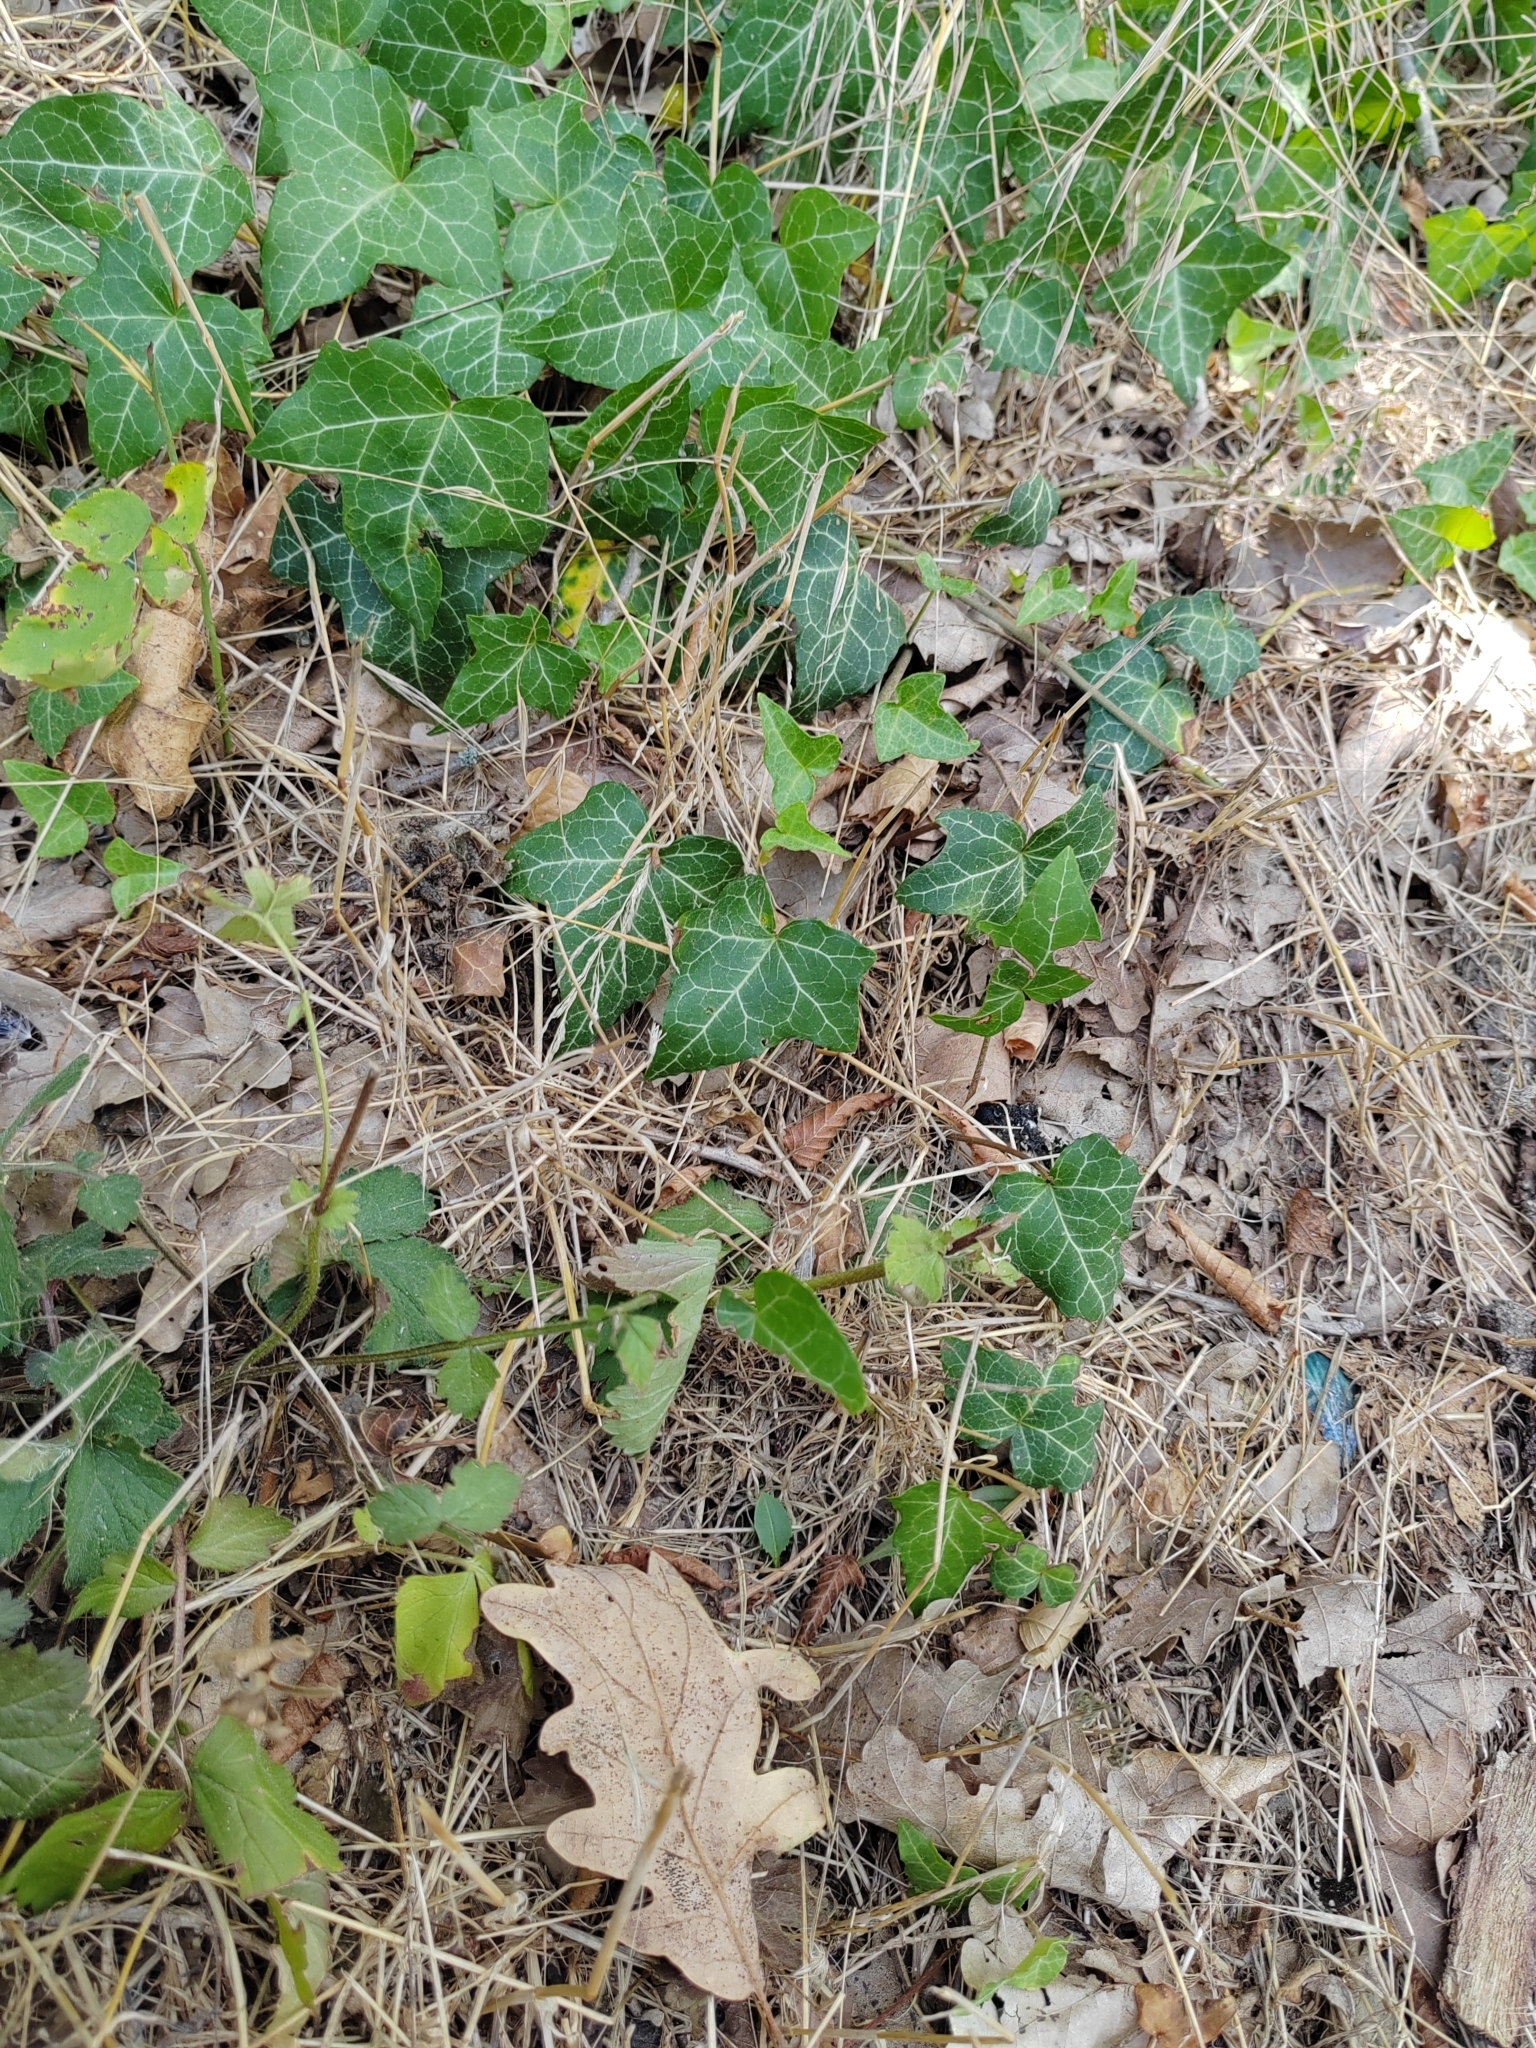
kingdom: Plantae
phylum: Tracheophyta
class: Magnoliopsida
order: Apiales
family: Araliaceae
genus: Hedera
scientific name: Hedera helix
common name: Ivy
